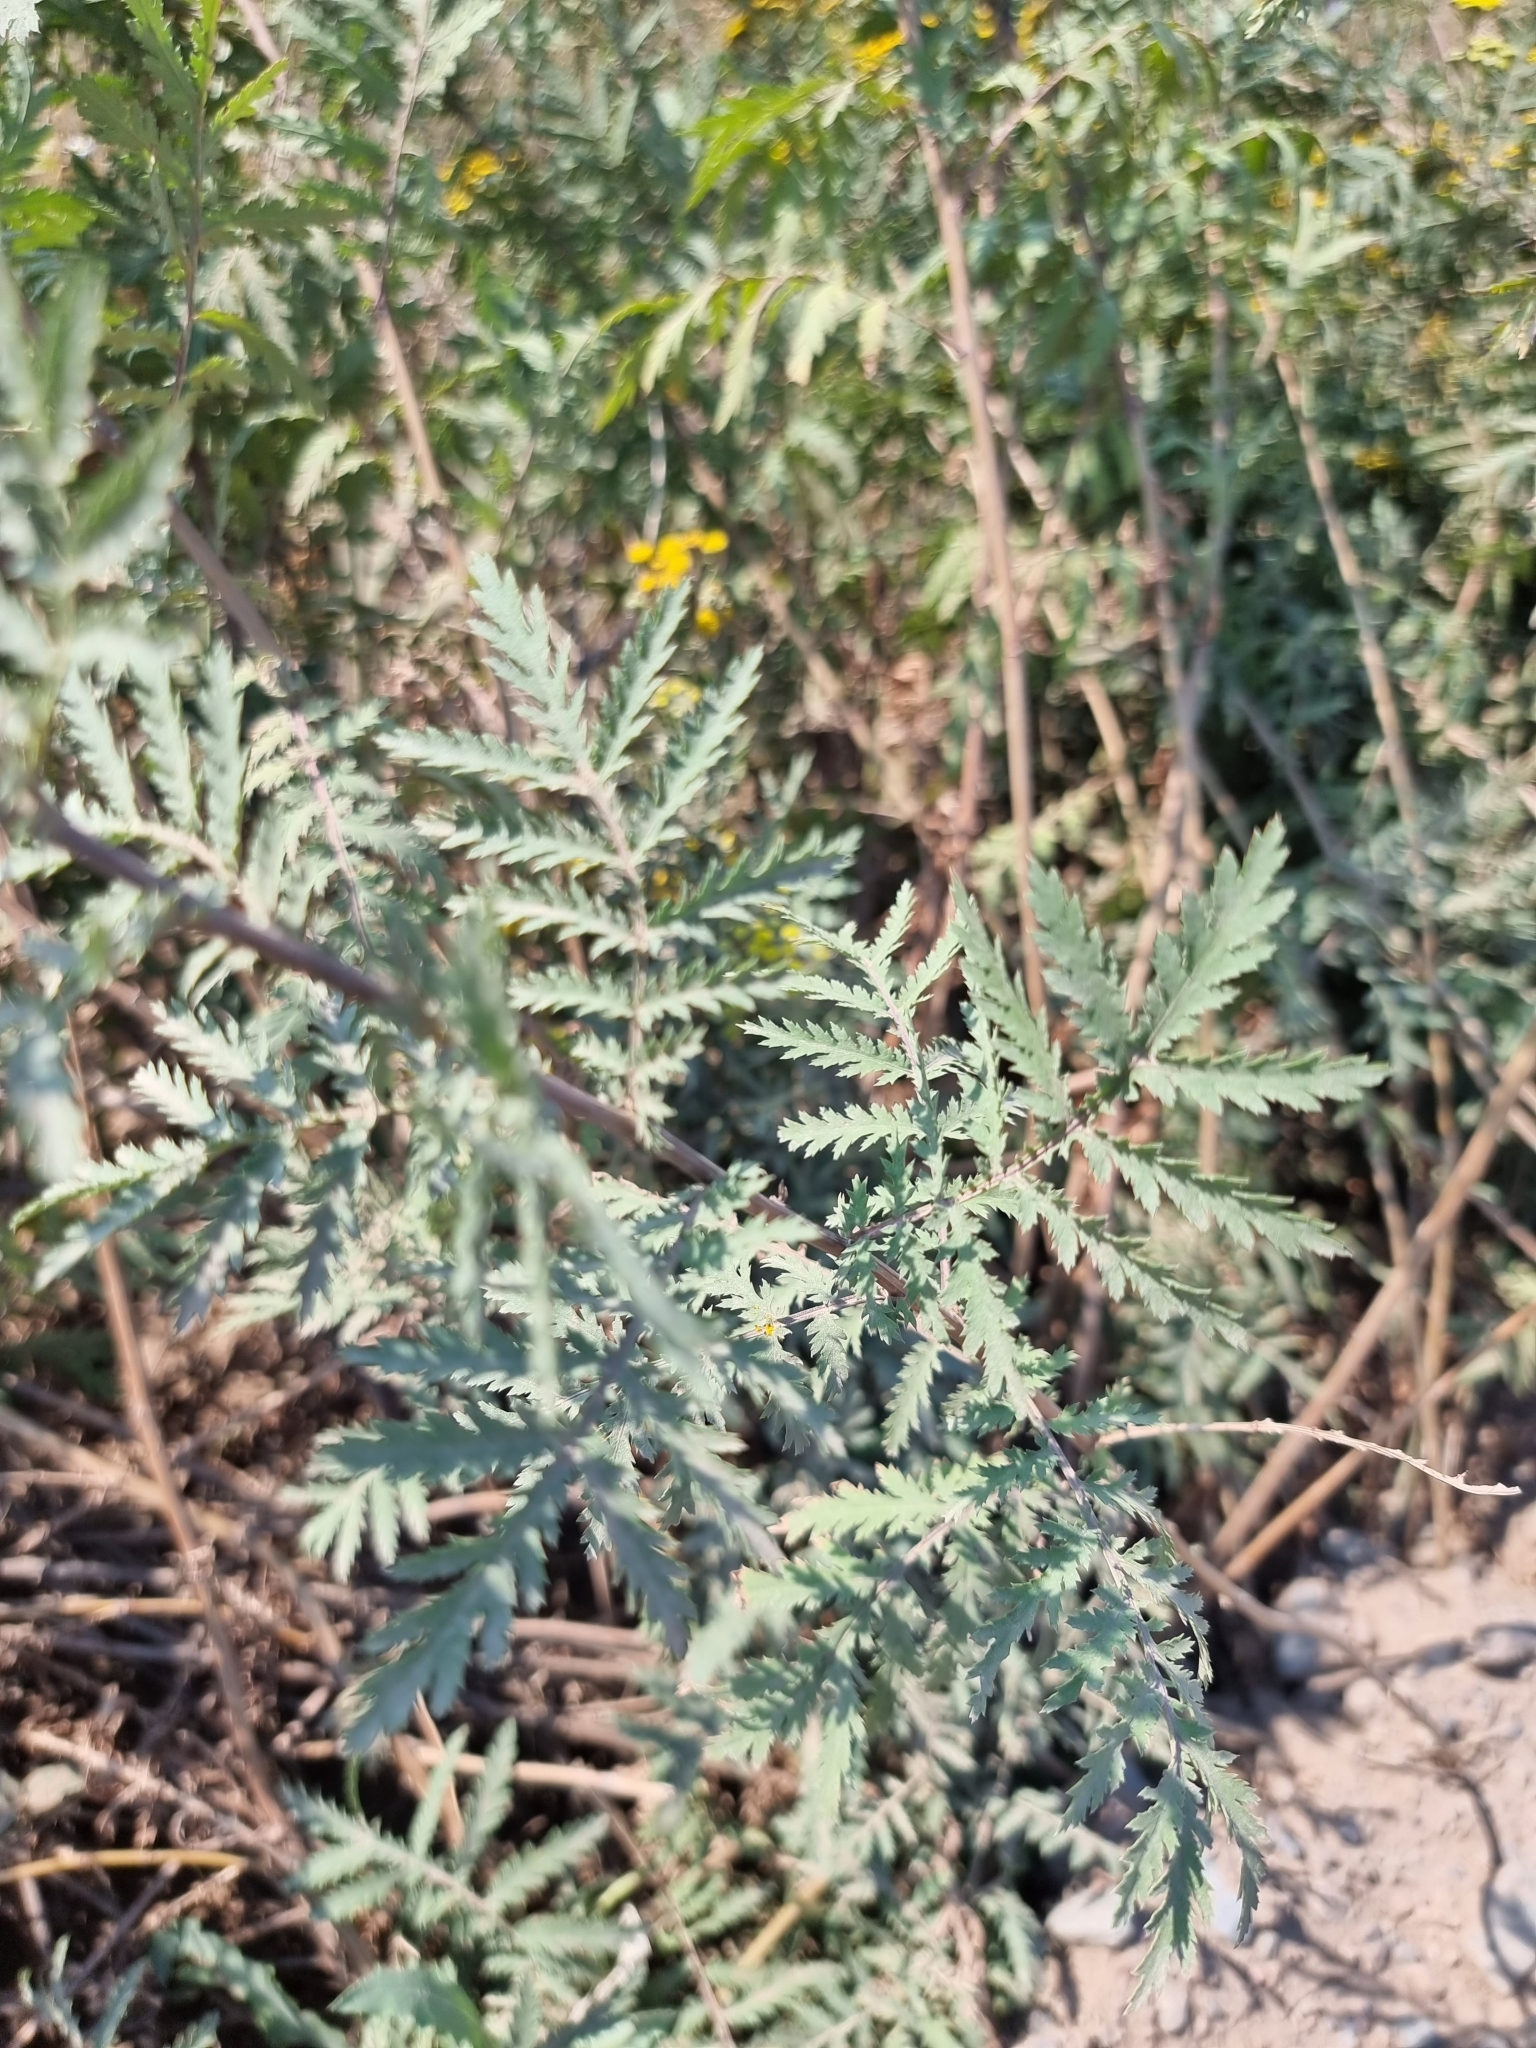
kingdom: Plantae
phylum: Tracheophyta
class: Magnoliopsida
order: Asterales
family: Asteraceae
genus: Tanacetum
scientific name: Tanacetum vulgare
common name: Common tansy
